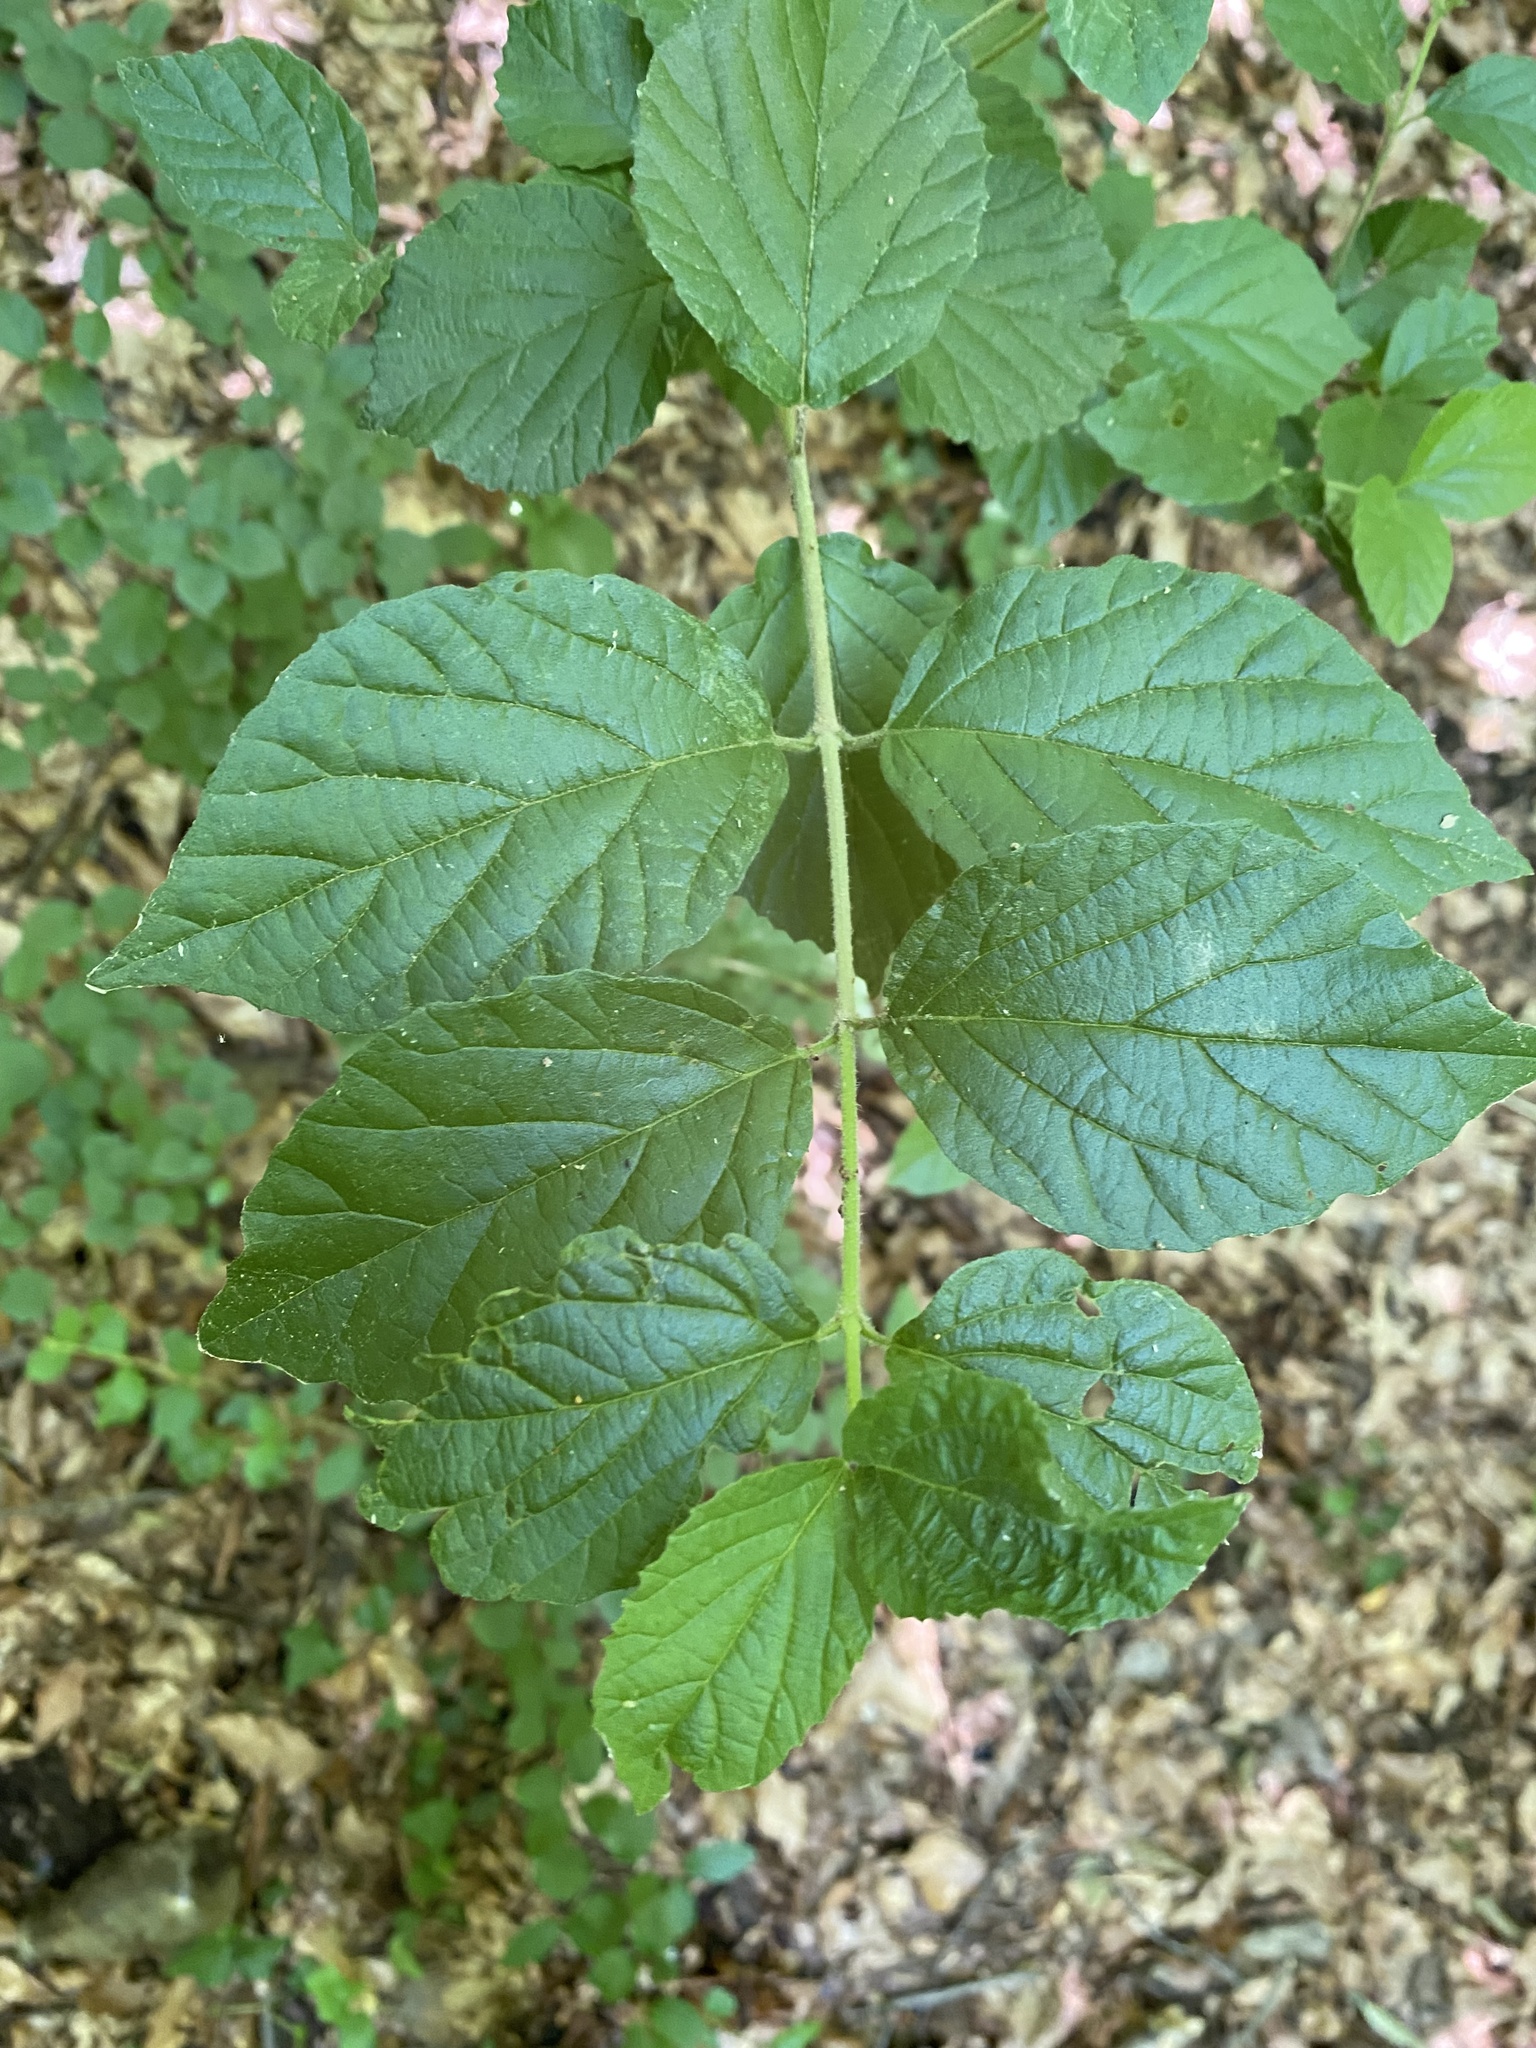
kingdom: Plantae
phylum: Tracheophyta
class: Magnoliopsida
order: Dipsacales
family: Viburnaceae
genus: Viburnum
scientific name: Viburnum dilatatum
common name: Linden arrowwood
